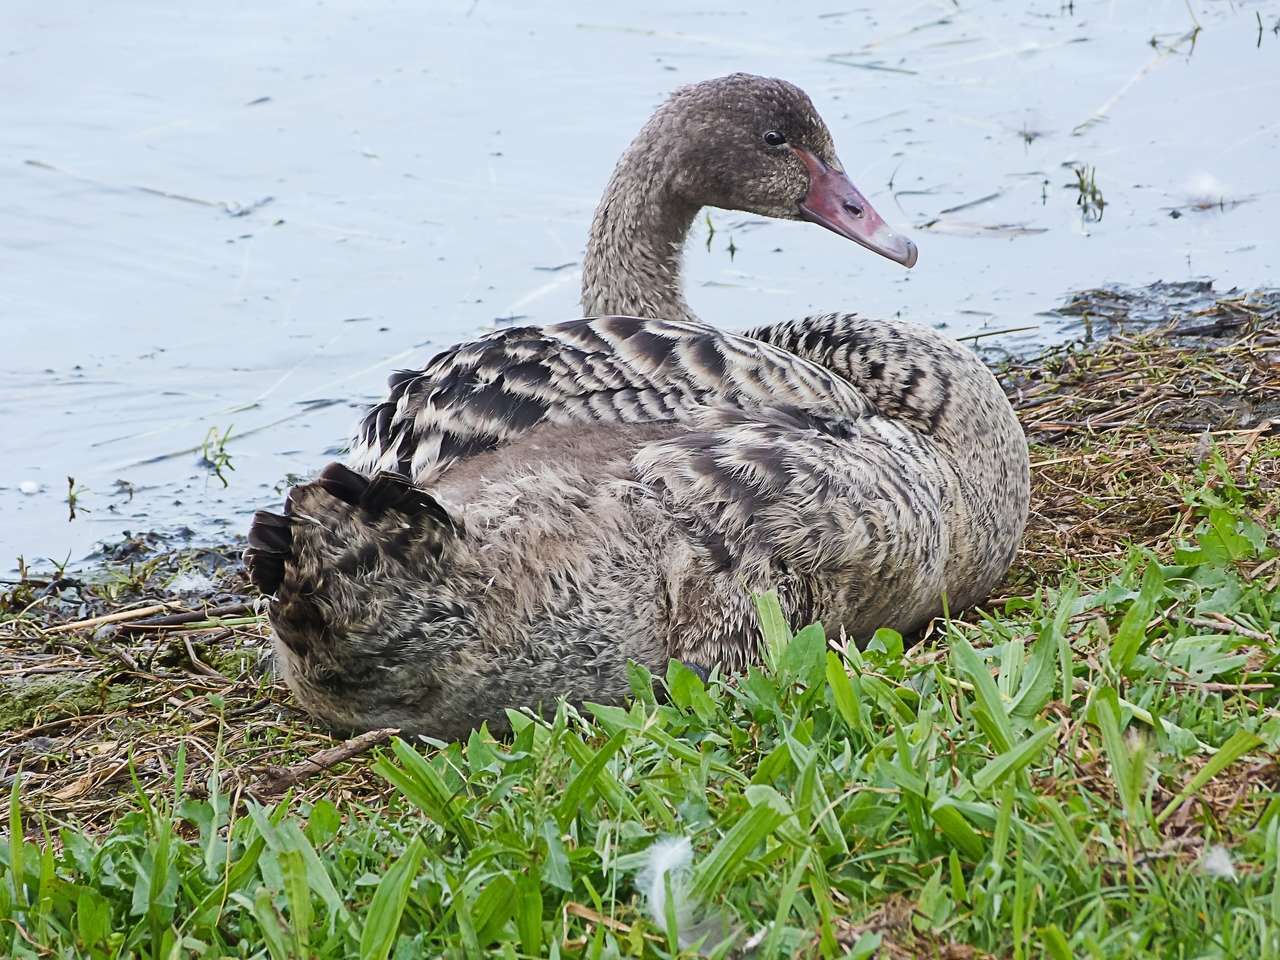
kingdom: Animalia
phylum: Chordata
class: Aves
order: Anseriformes
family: Anatidae
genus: Cygnus
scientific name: Cygnus atratus
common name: Black swan
